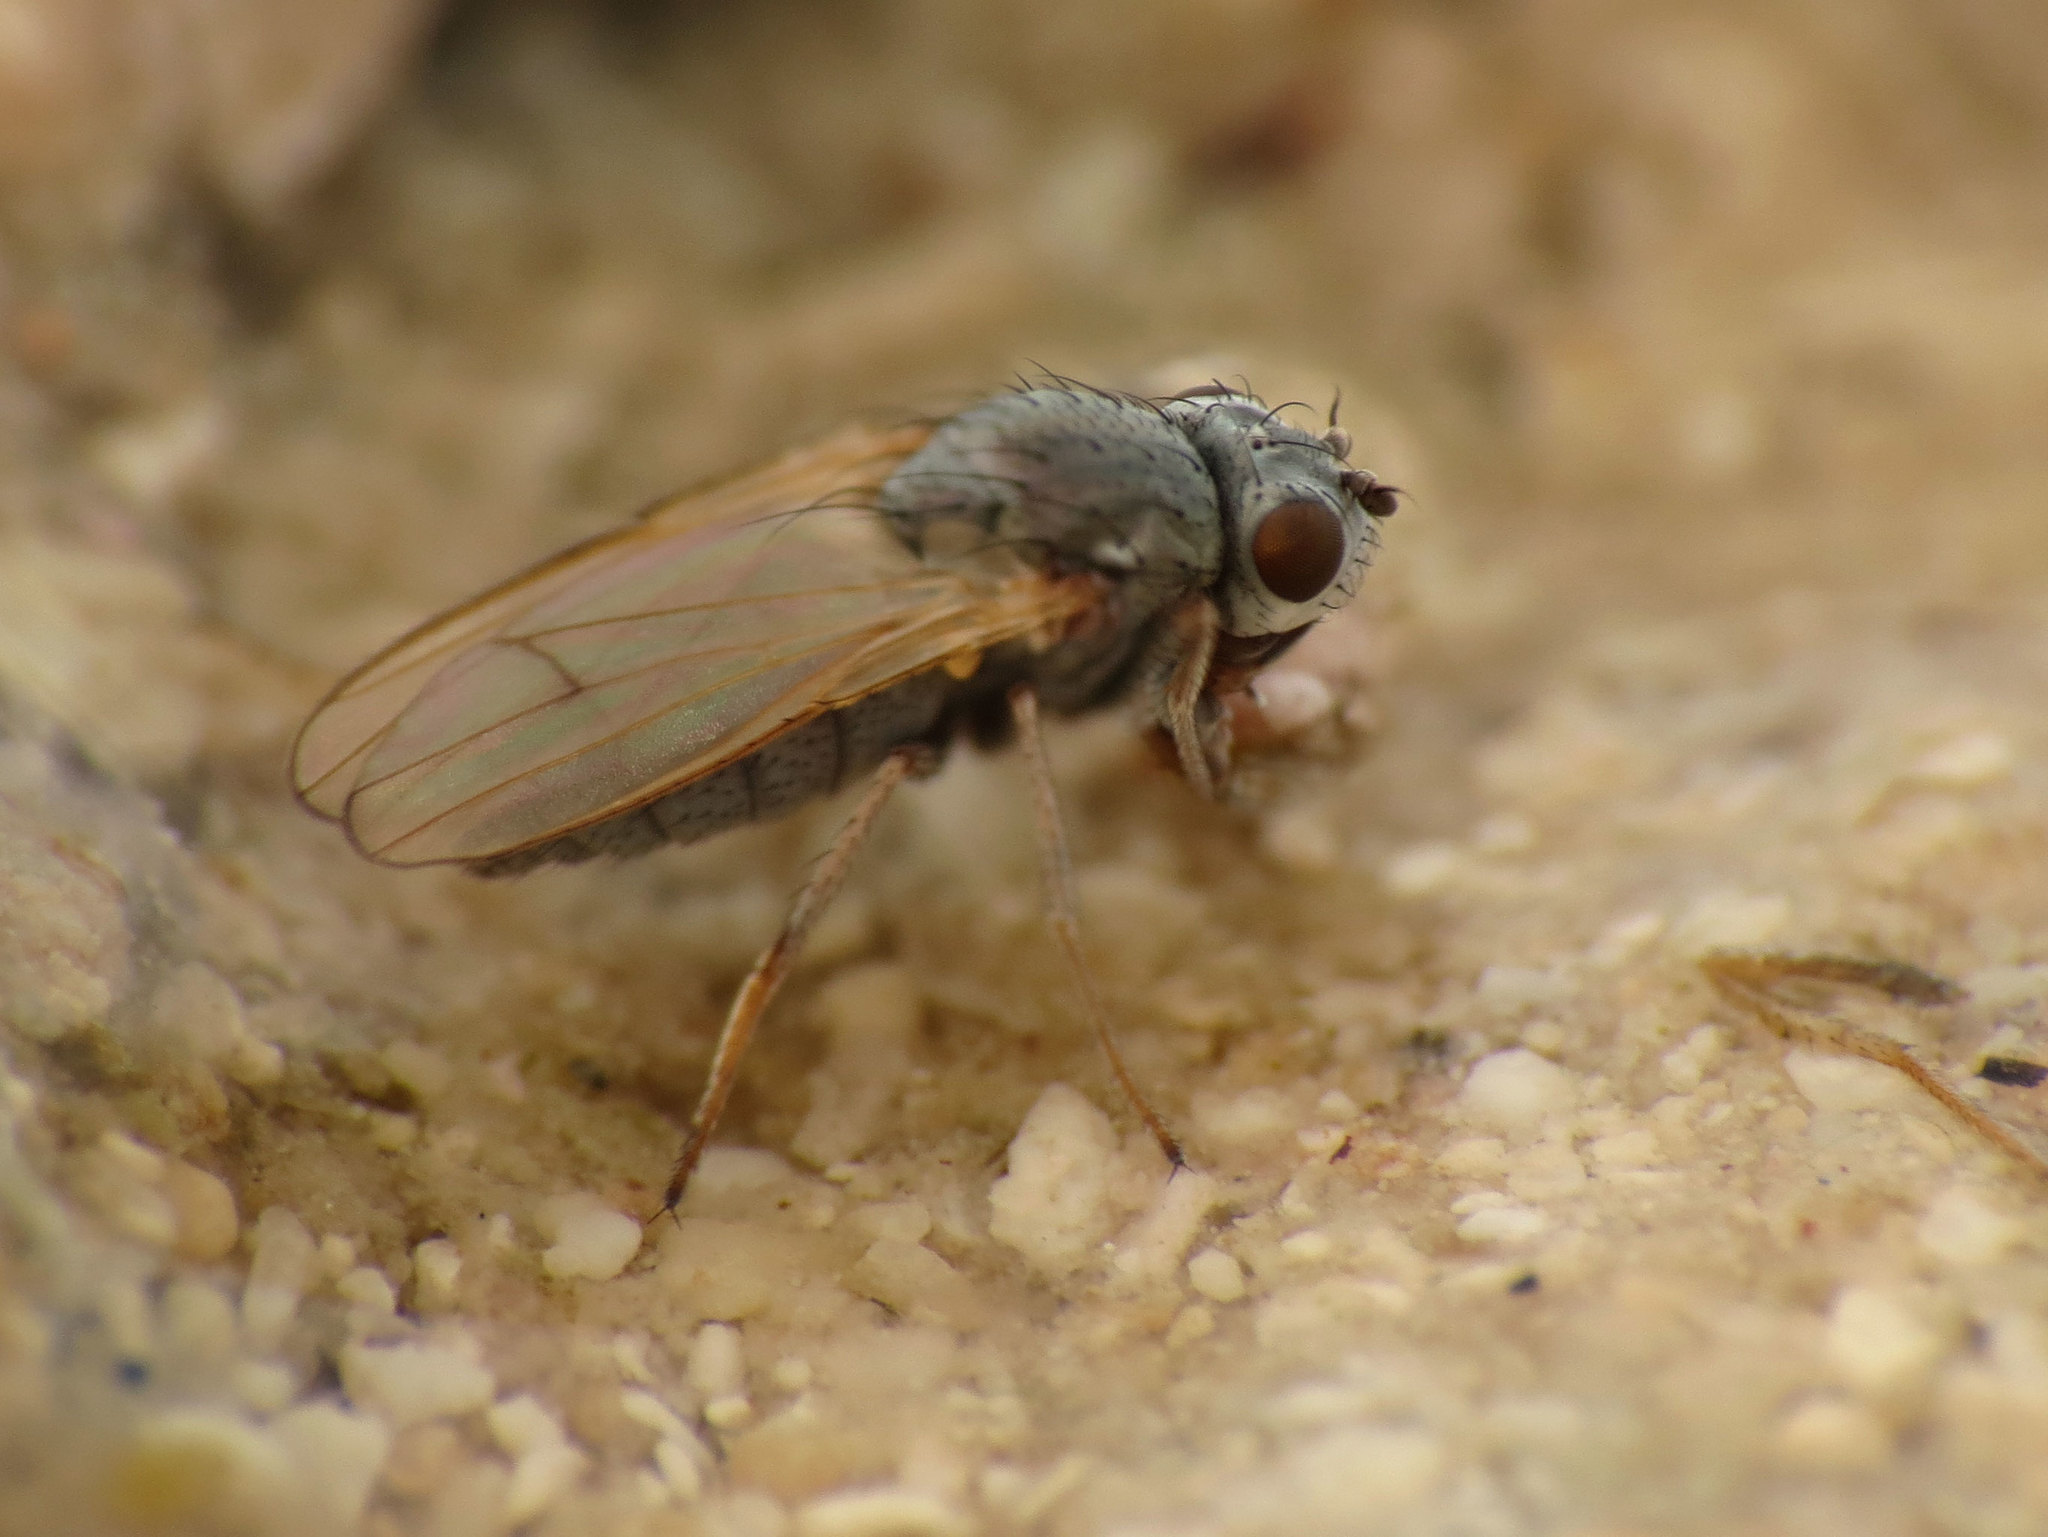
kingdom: Animalia
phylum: Arthropoda
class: Insecta
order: Diptera
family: Ephydridae
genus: Ephydra
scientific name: Ephydra gracilis
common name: Shore fly
